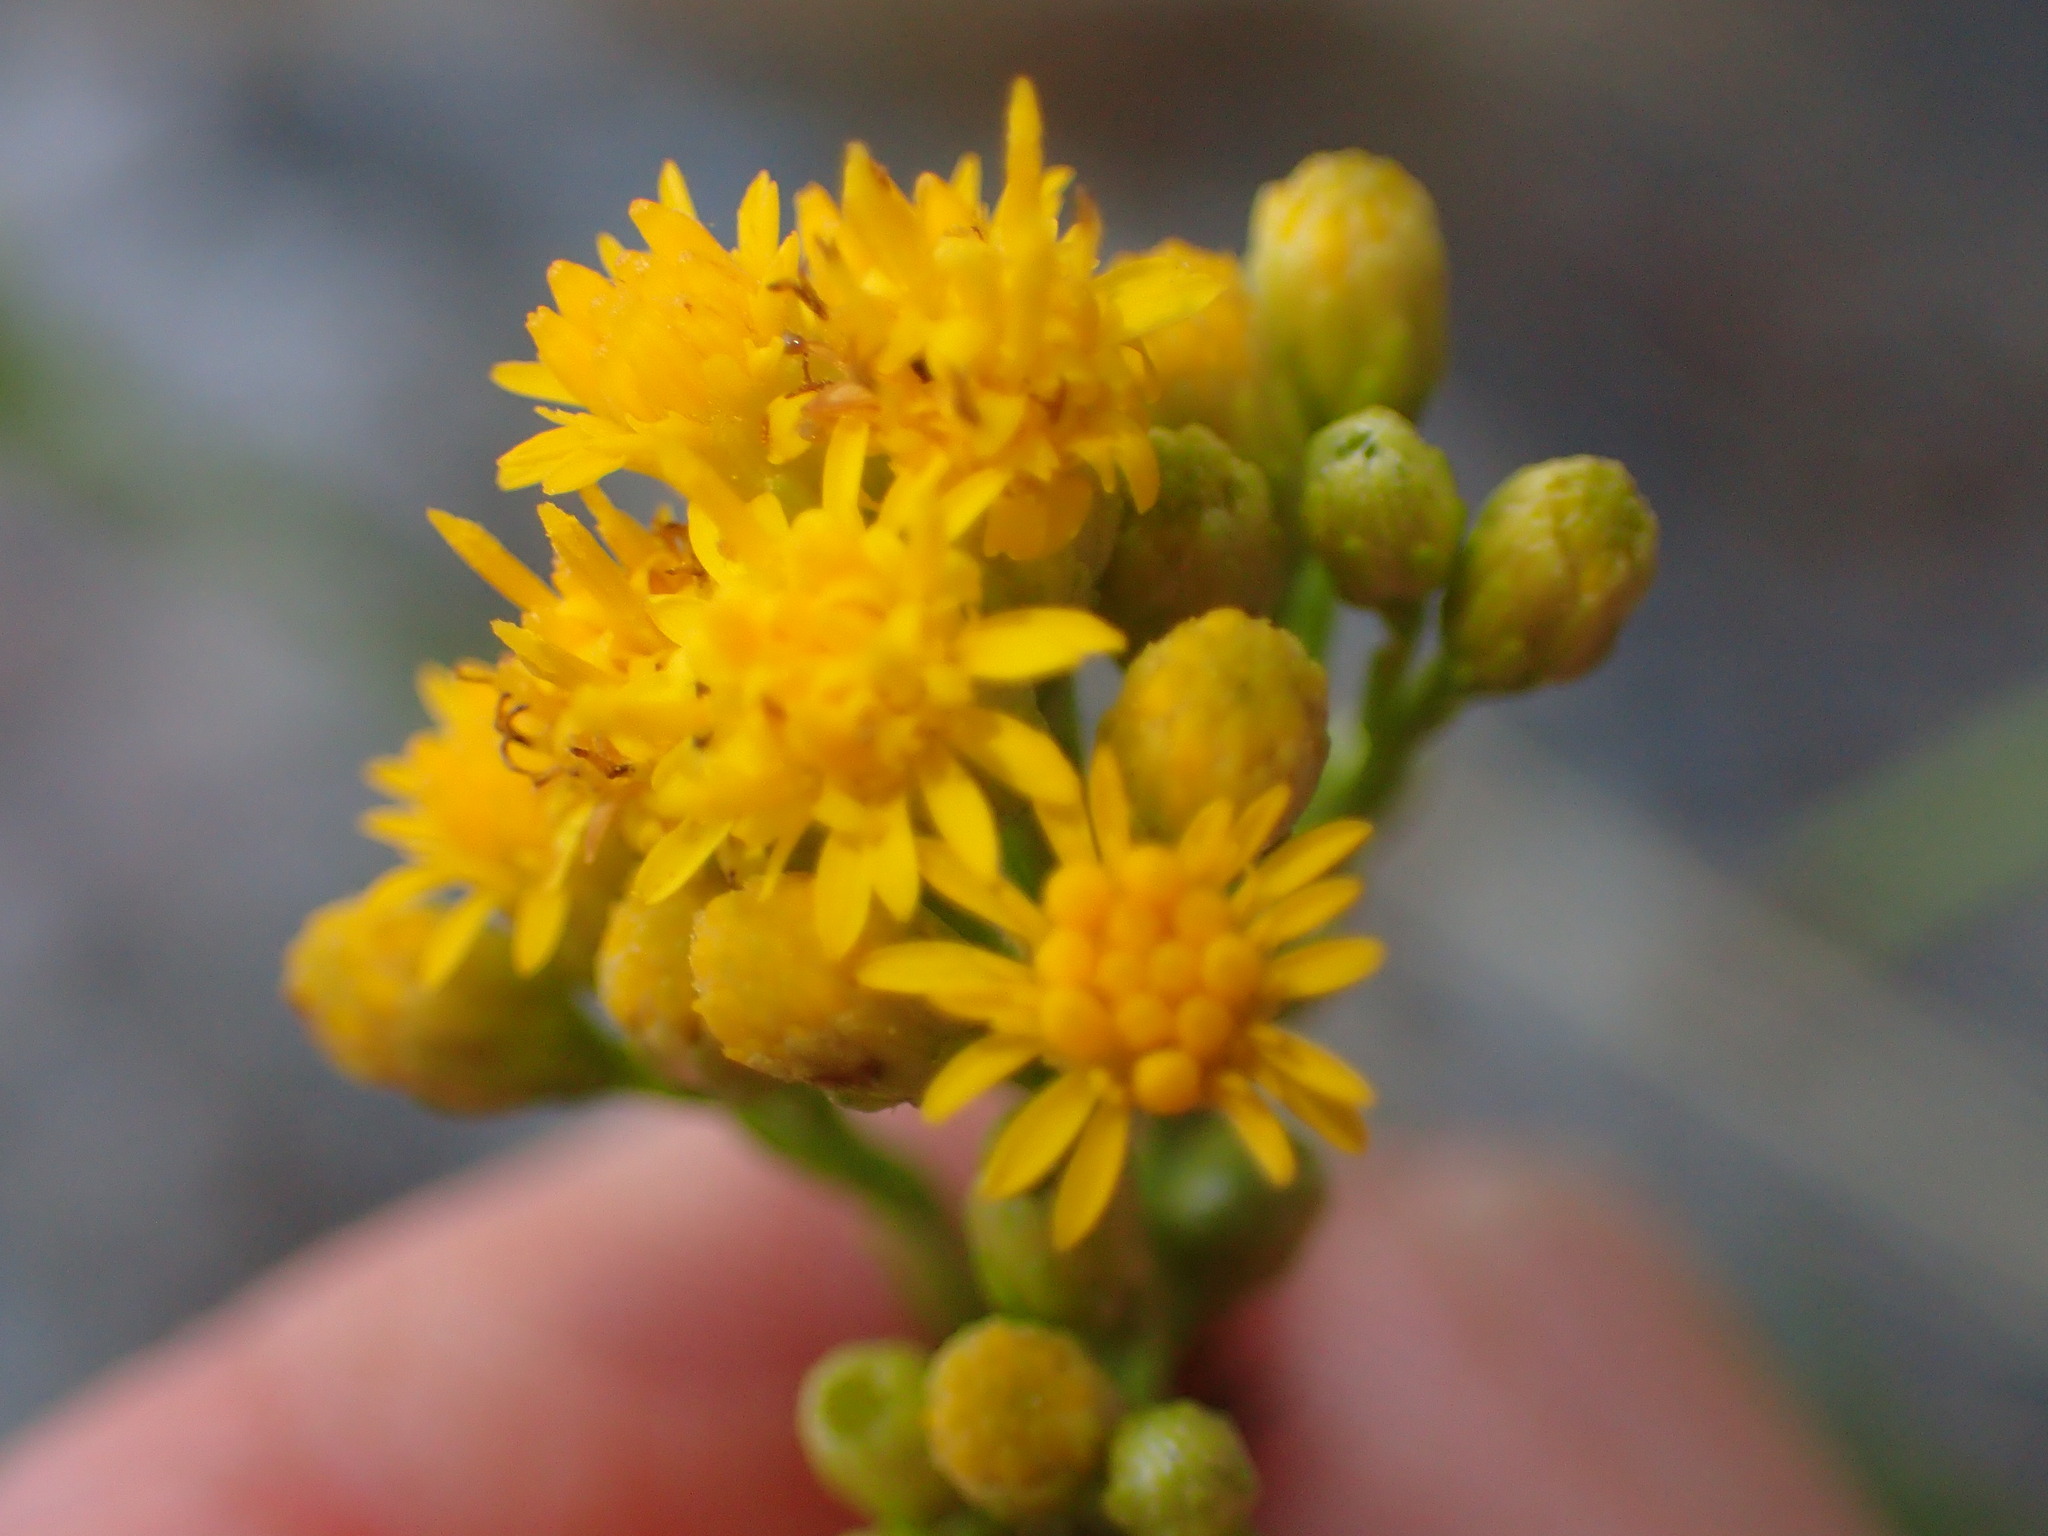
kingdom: Plantae
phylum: Tracheophyta
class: Magnoliopsida
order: Asterales
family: Asteraceae
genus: Euthamia
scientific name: Euthamia occidentalis
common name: Western goldentop
